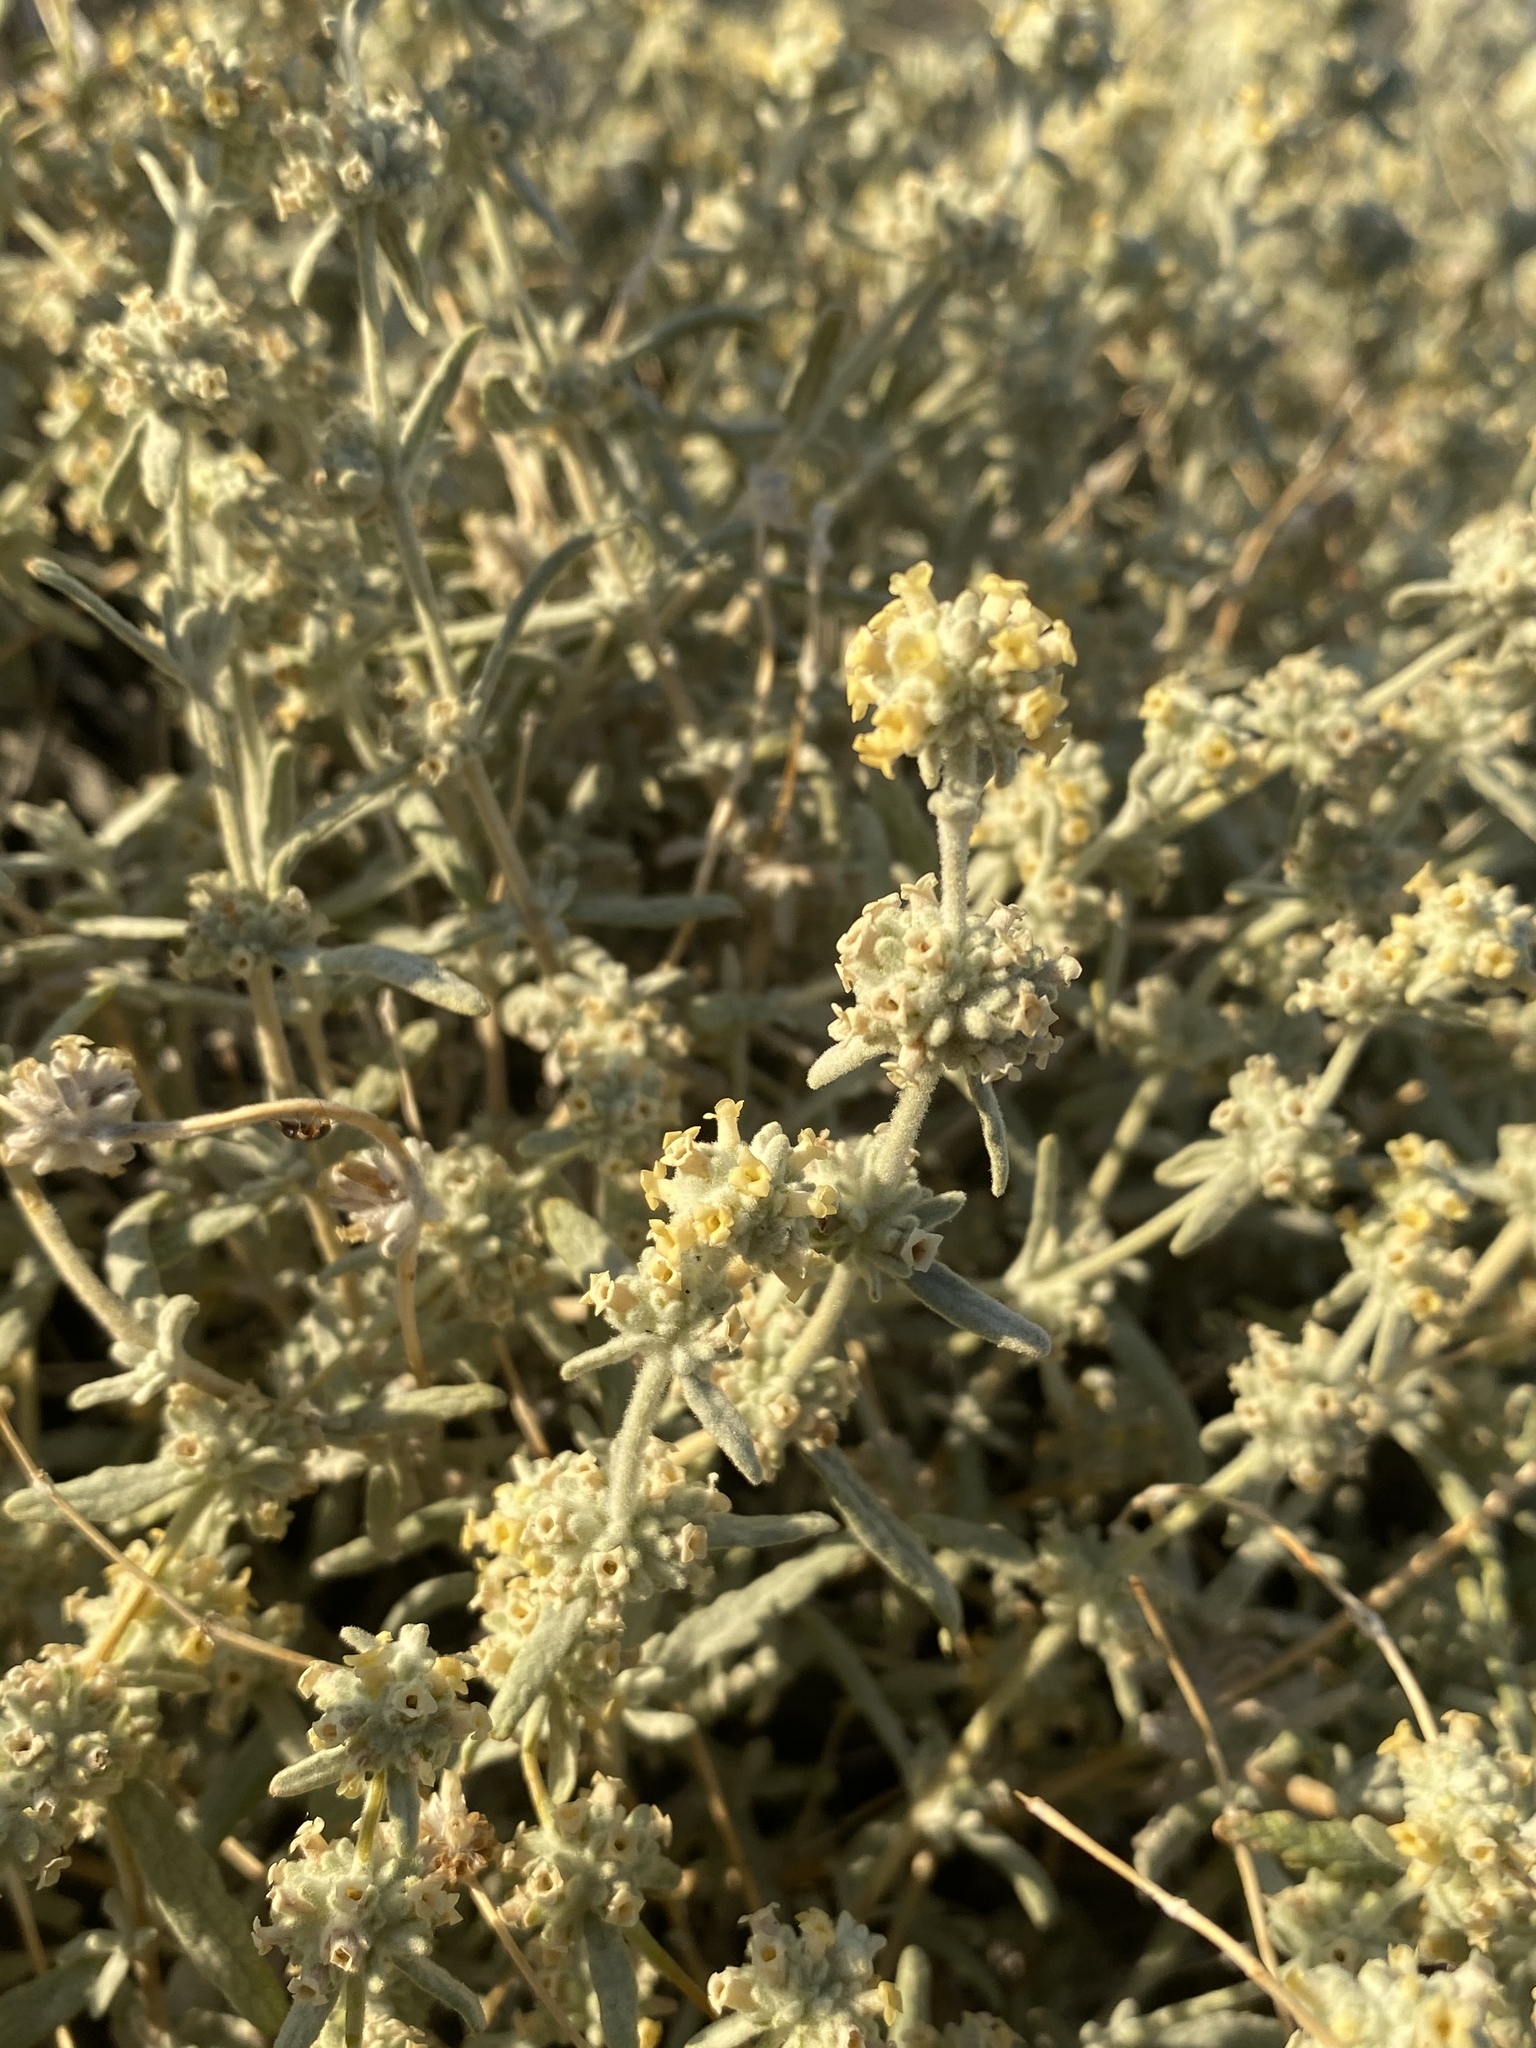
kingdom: Plantae
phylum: Tracheophyta
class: Magnoliopsida
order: Lamiales
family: Scrophulariaceae
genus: Buddleja
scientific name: Buddleja utahensis
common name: Utah butterfly-bush
